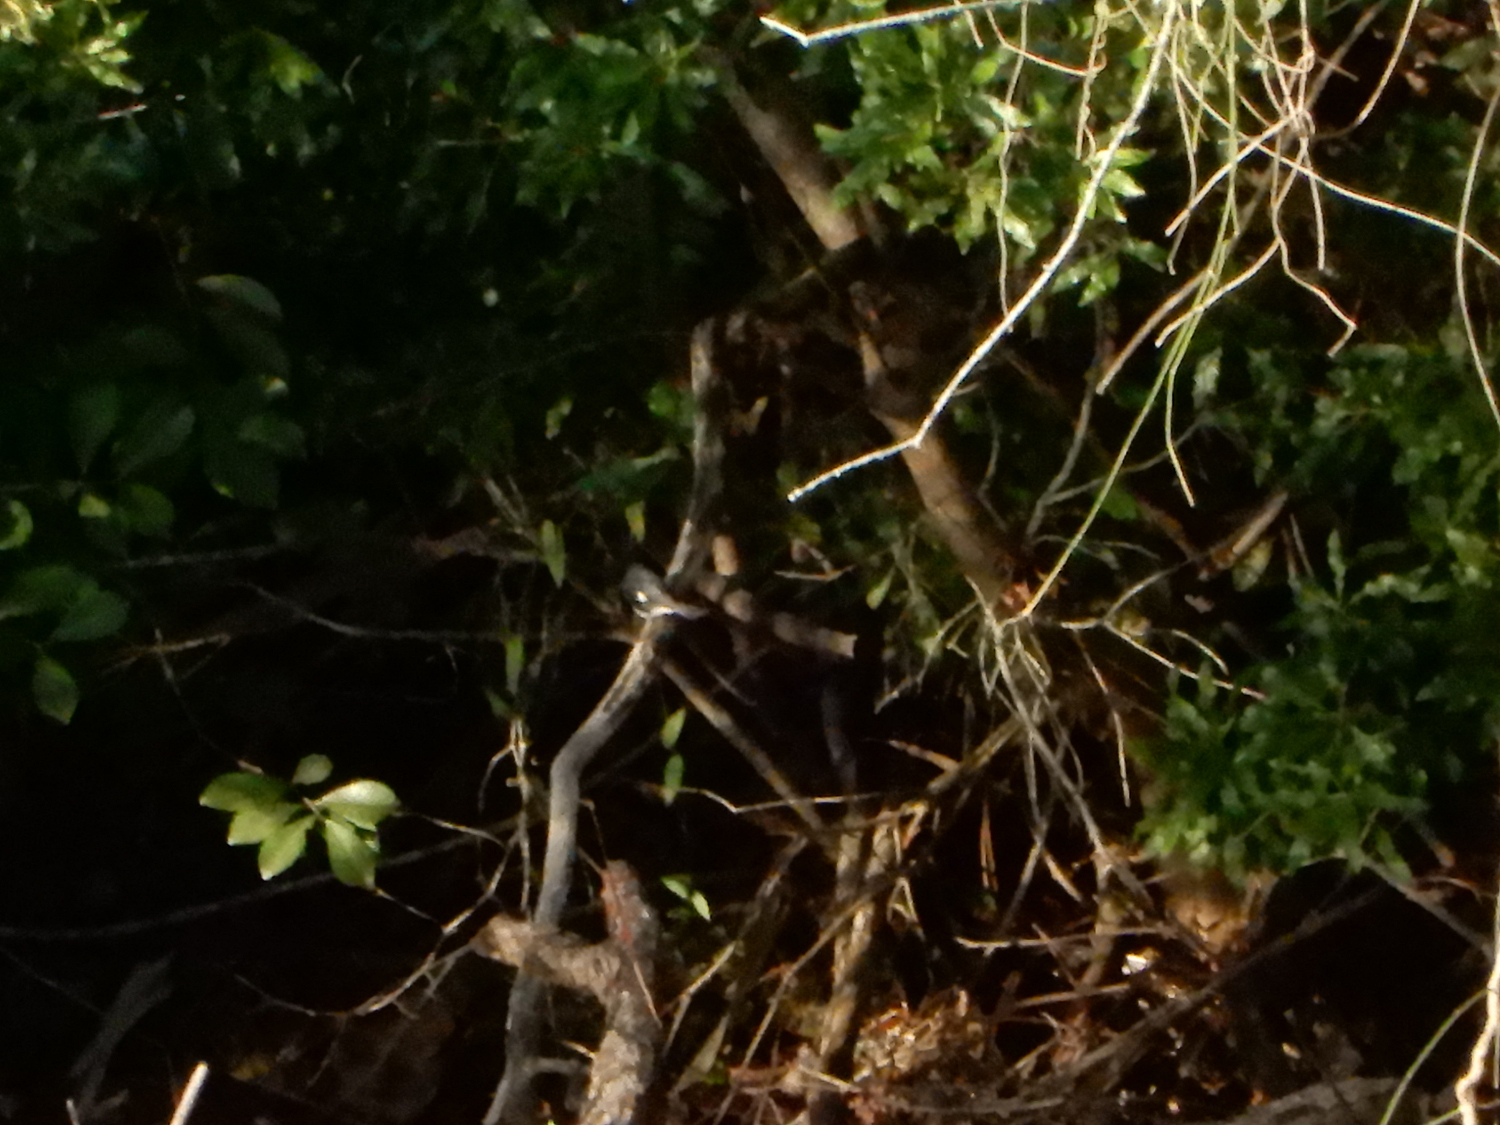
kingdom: Animalia
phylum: Chordata
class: Aves
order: Passeriformes
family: Parulidae
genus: Setophaga
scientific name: Setophaga caerulescens
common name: Black-throated blue warbler
